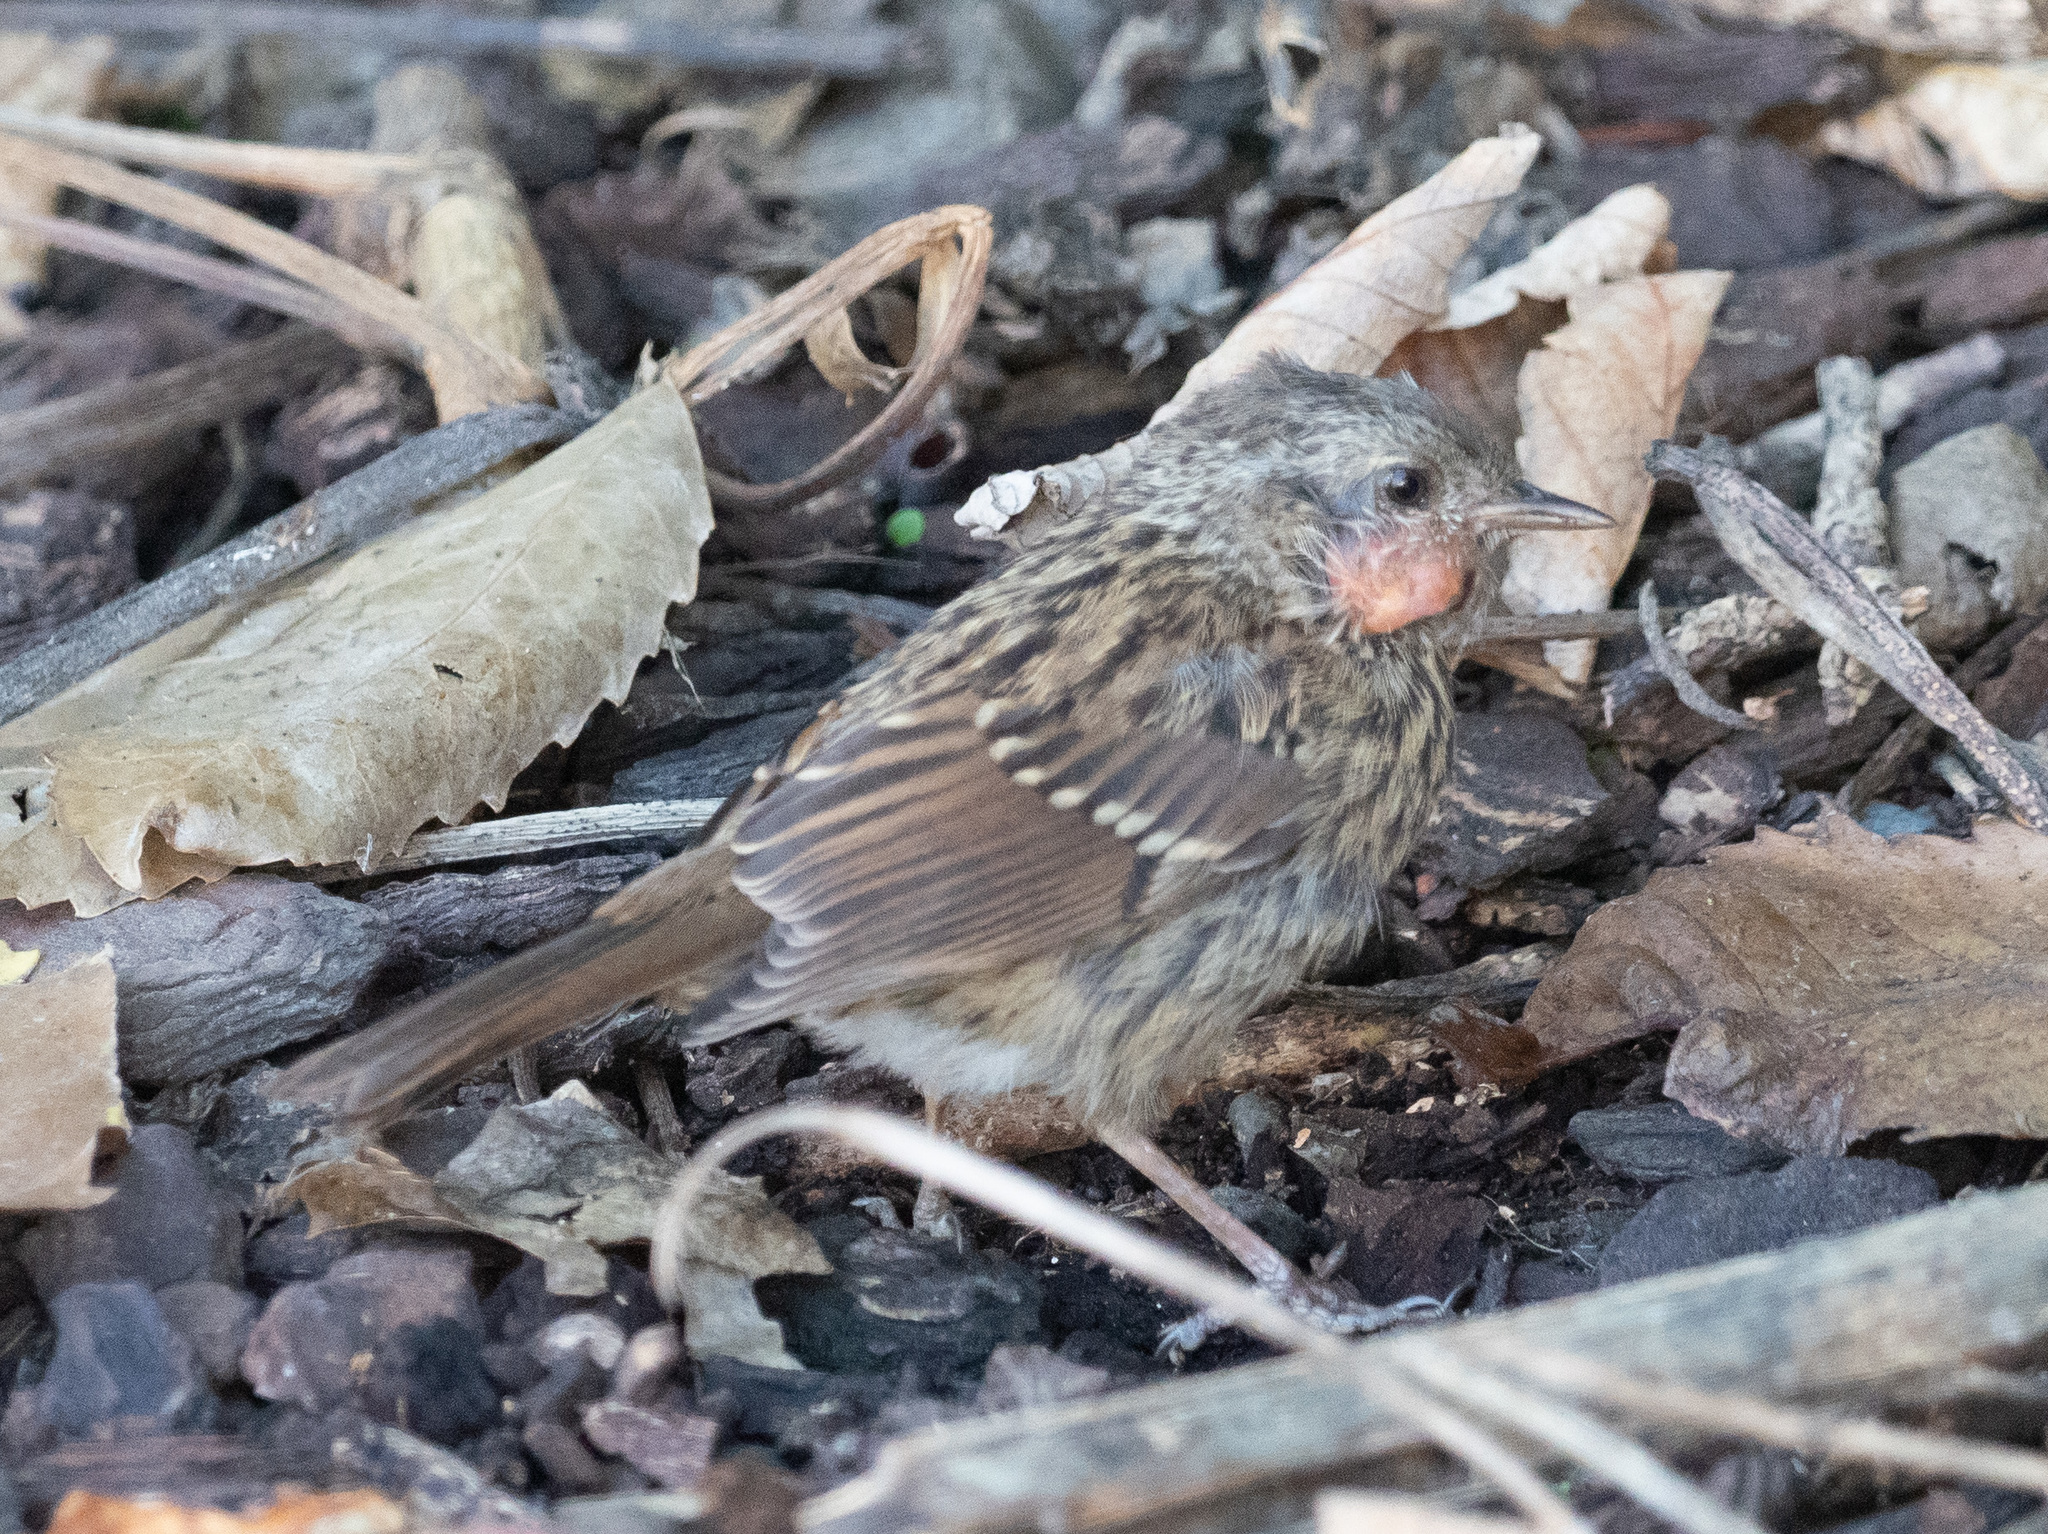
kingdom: Animalia
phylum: Chordata
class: Aves
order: Passeriformes
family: Prunellidae
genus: Prunella
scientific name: Prunella modularis
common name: Dunnock
